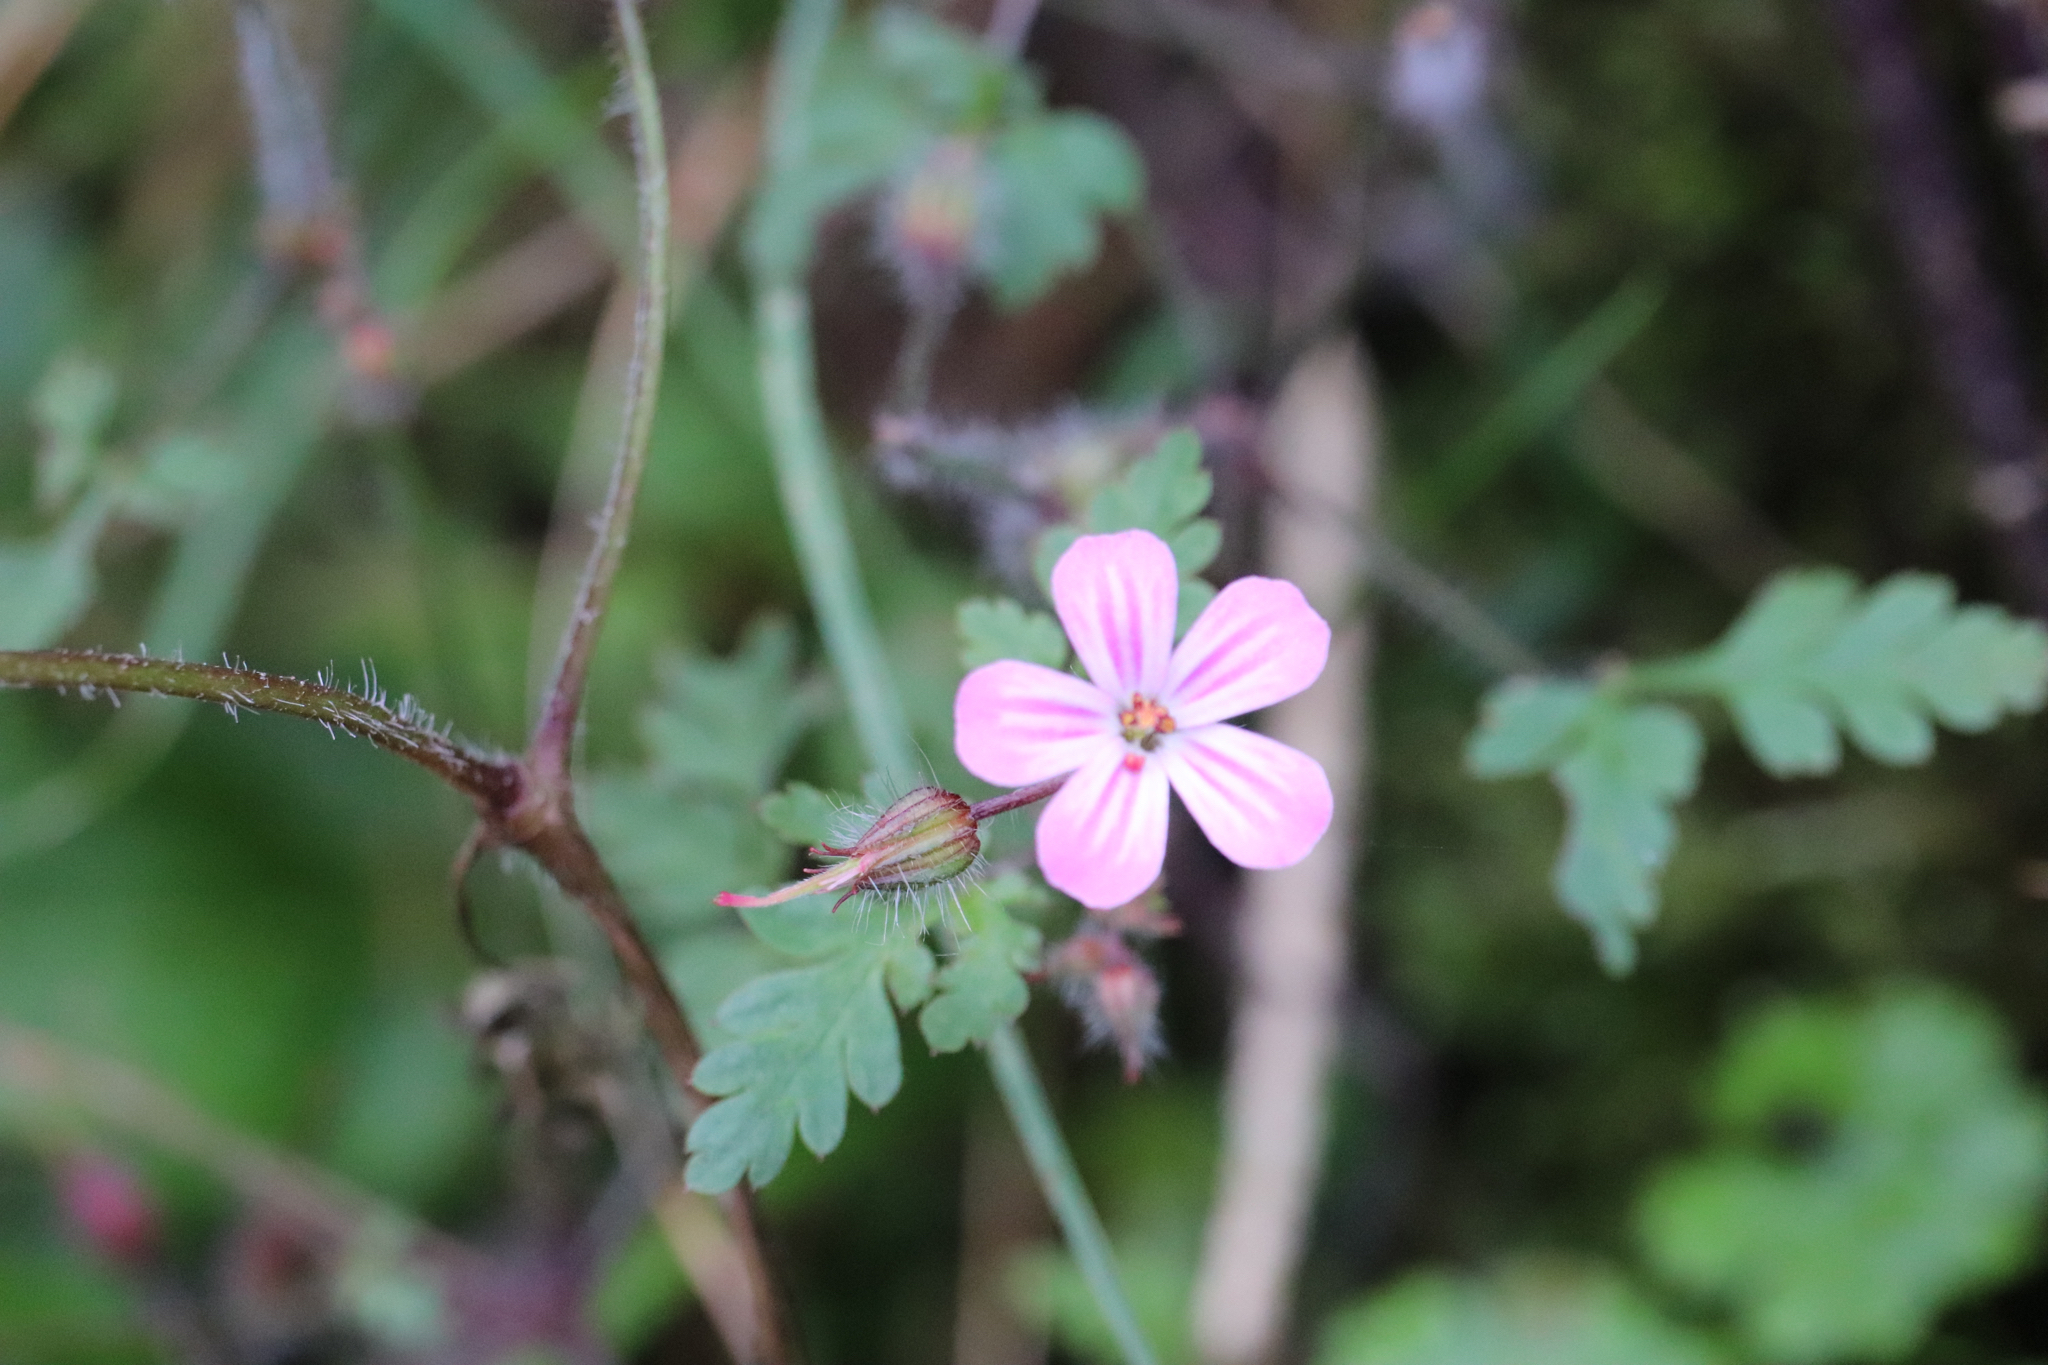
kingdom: Plantae
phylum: Tracheophyta
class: Magnoliopsida
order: Geraniales
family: Geraniaceae
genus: Geranium
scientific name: Geranium robertianum
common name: Herb-robert
